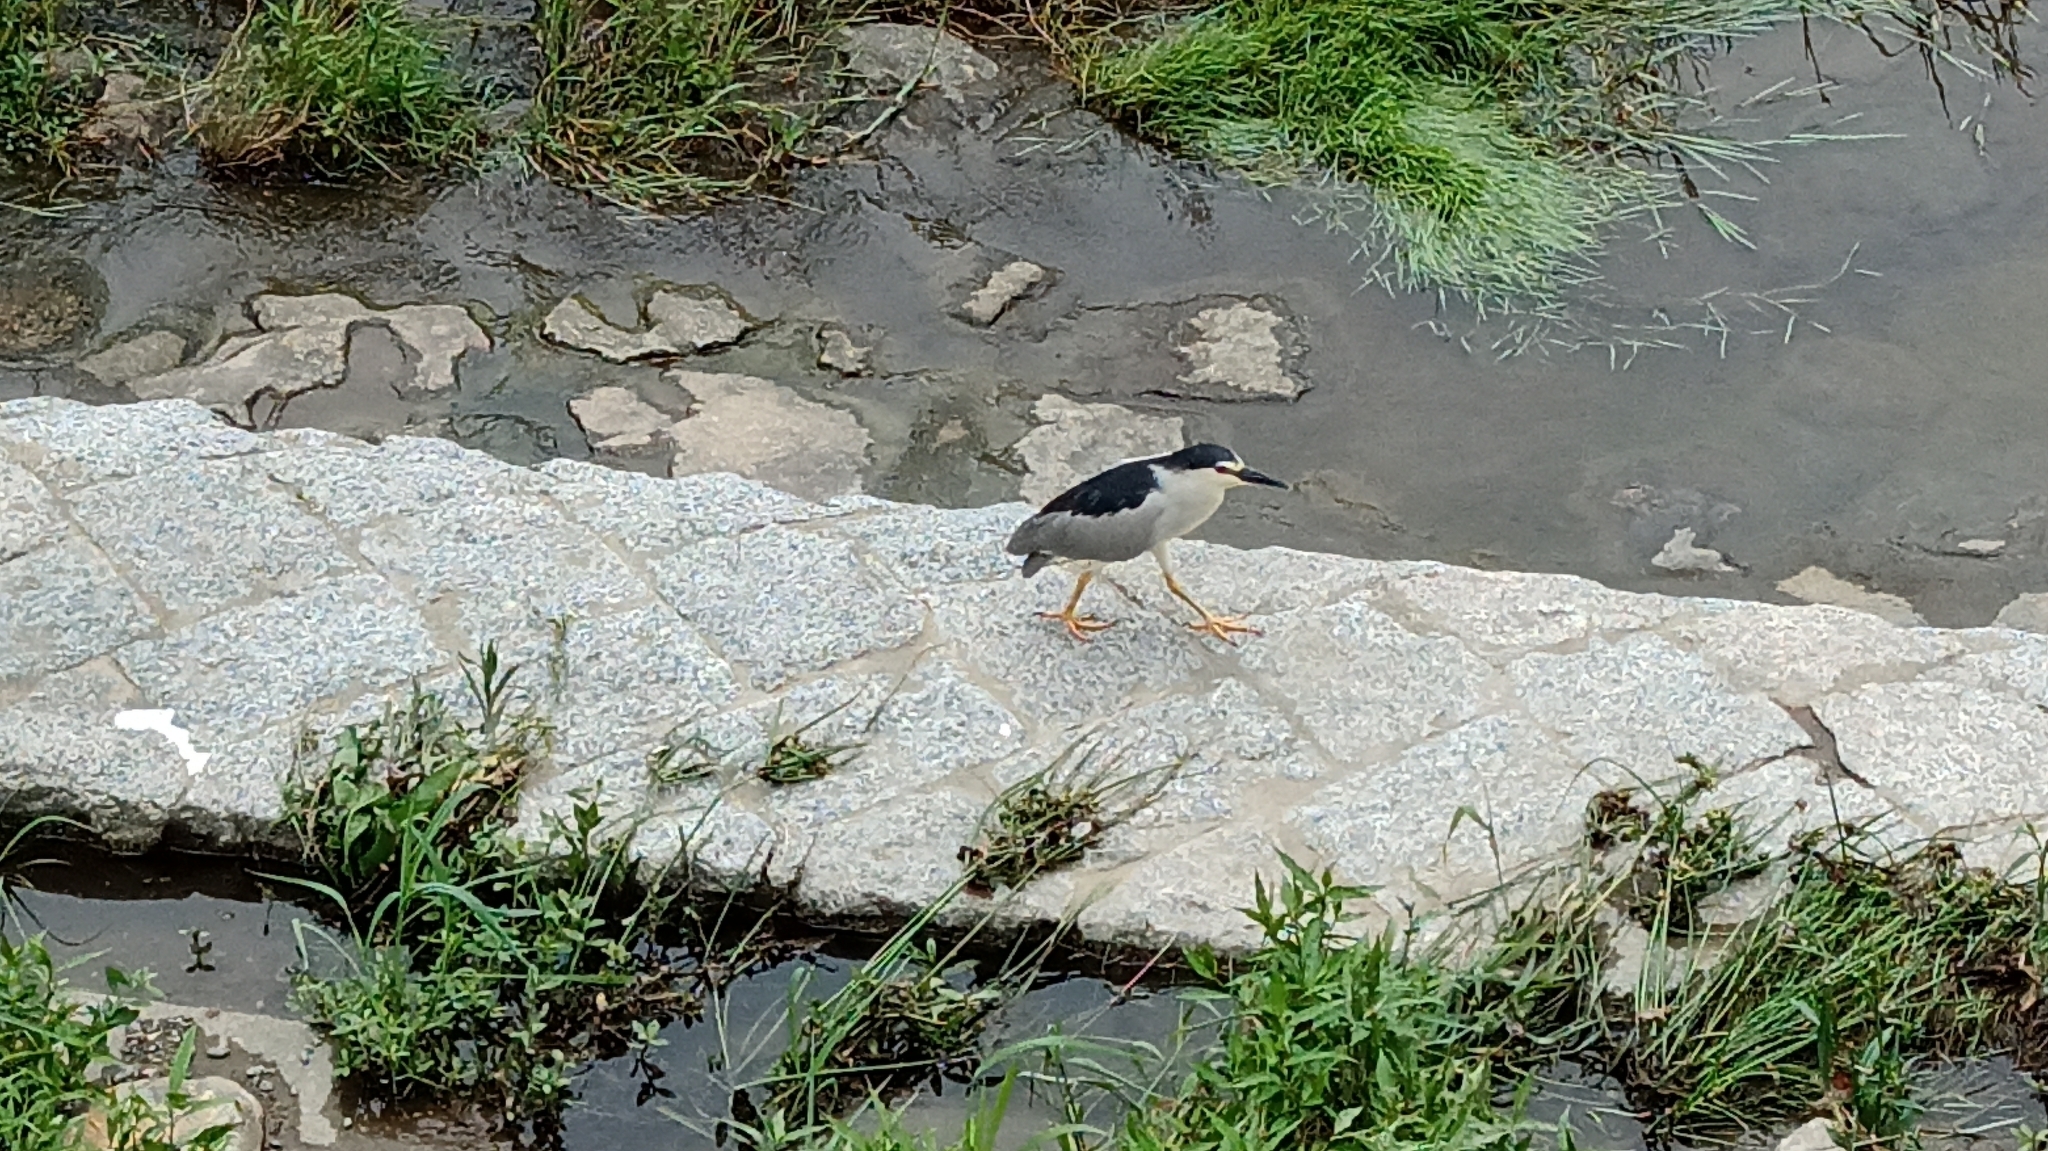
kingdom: Animalia
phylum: Chordata
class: Aves
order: Pelecaniformes
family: Ardeidae
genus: Nycticorax
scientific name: Nycticorax nycticorax
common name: Black-crowned night heron
